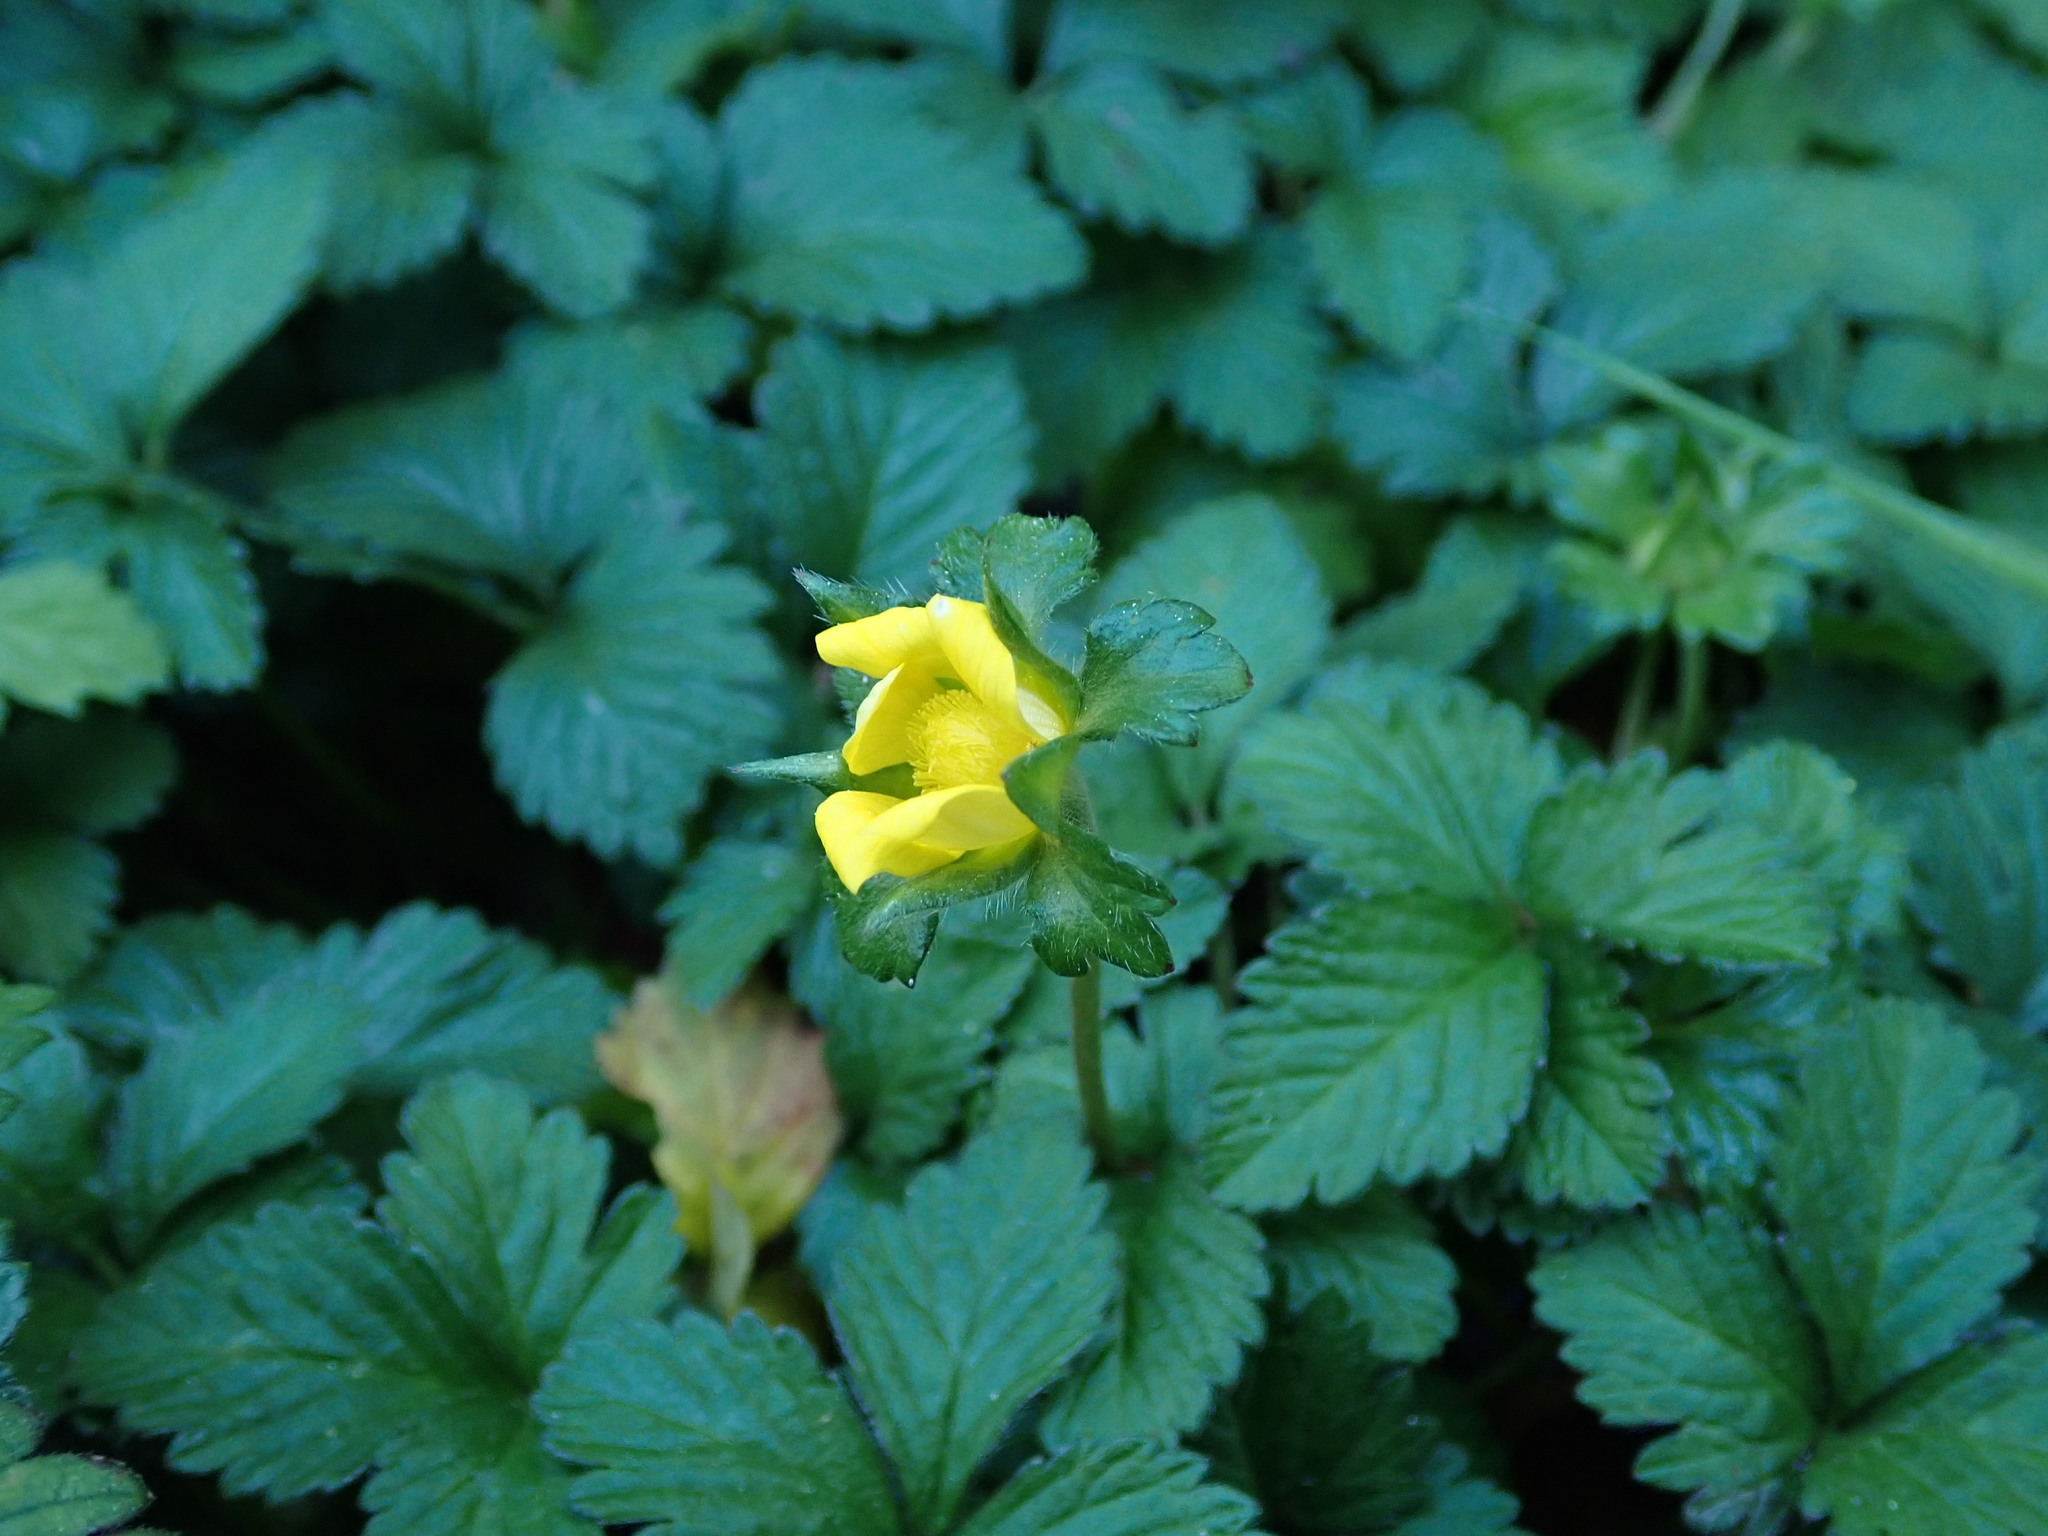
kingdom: Plantae
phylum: Tracheophyta
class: Magnoliopsida
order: Rosales
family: Rosaceae
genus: Potentilla
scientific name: Potentilla indica
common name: Yellow-flowered strawberry
